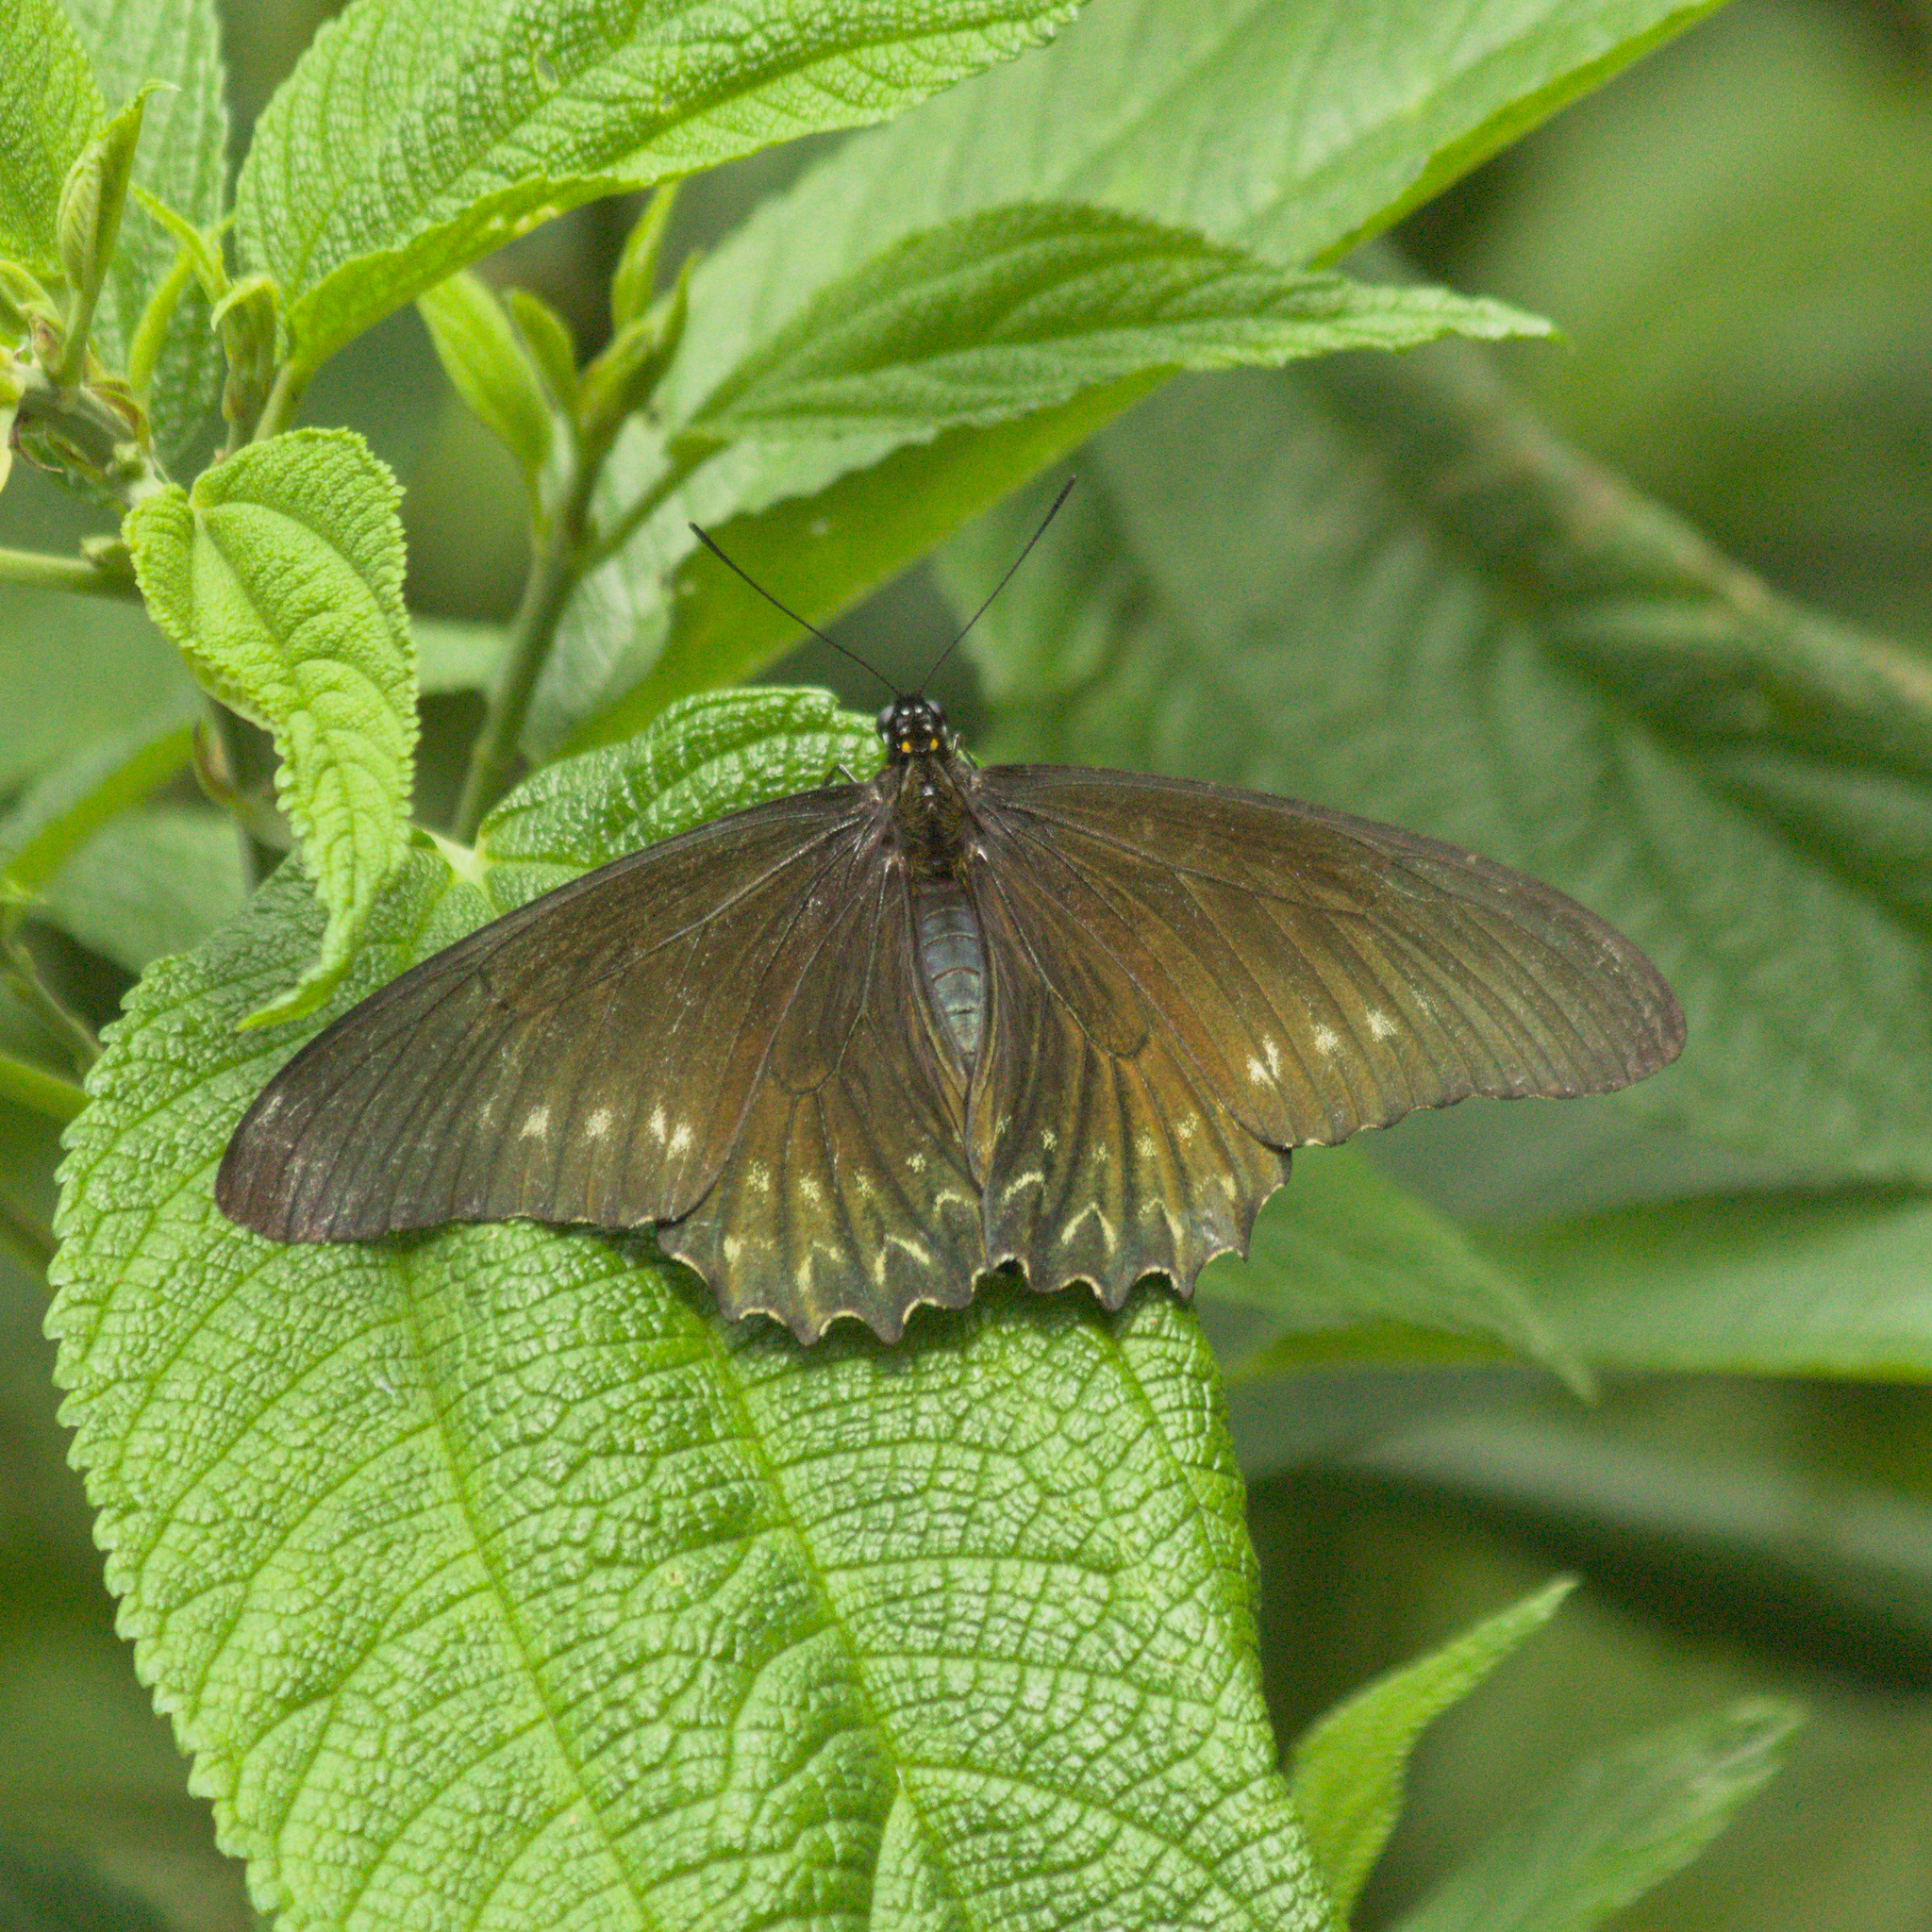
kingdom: Animalia
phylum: Arthropoda
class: Insecta
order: Lepidoptera
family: Papilionidae
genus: Battus
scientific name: Battus polystictus
